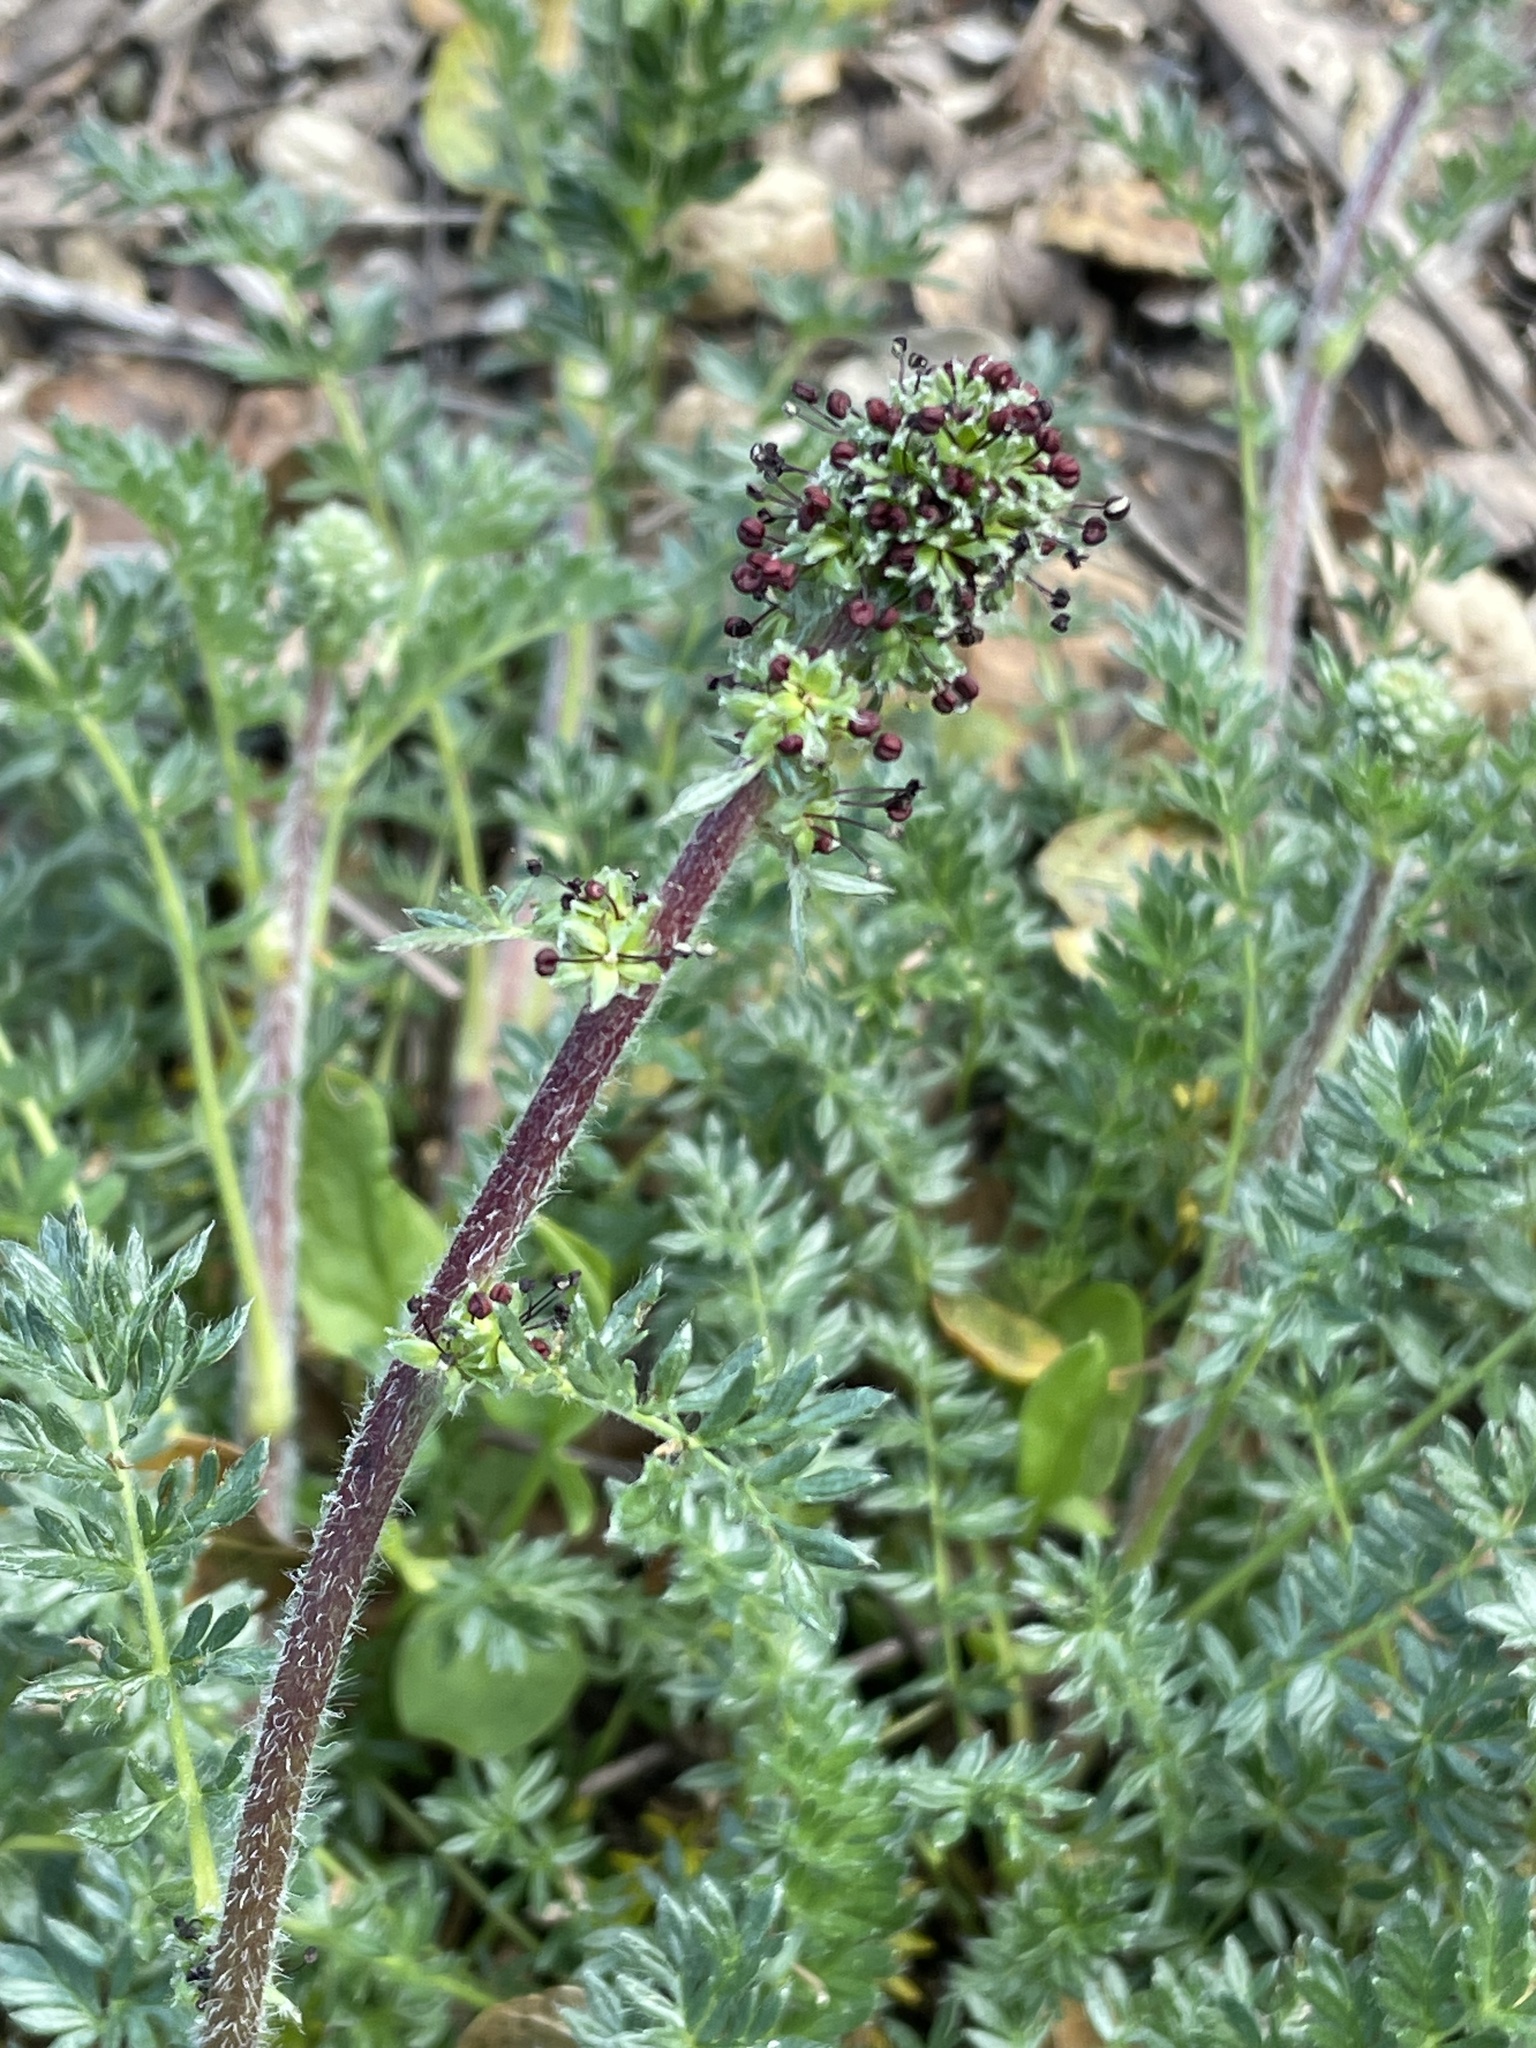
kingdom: Plantae
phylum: Tracheophyta
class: Magnoliopsida
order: Rosales
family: Rosaceae
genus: Acaena
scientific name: Acaena pinnatifida
